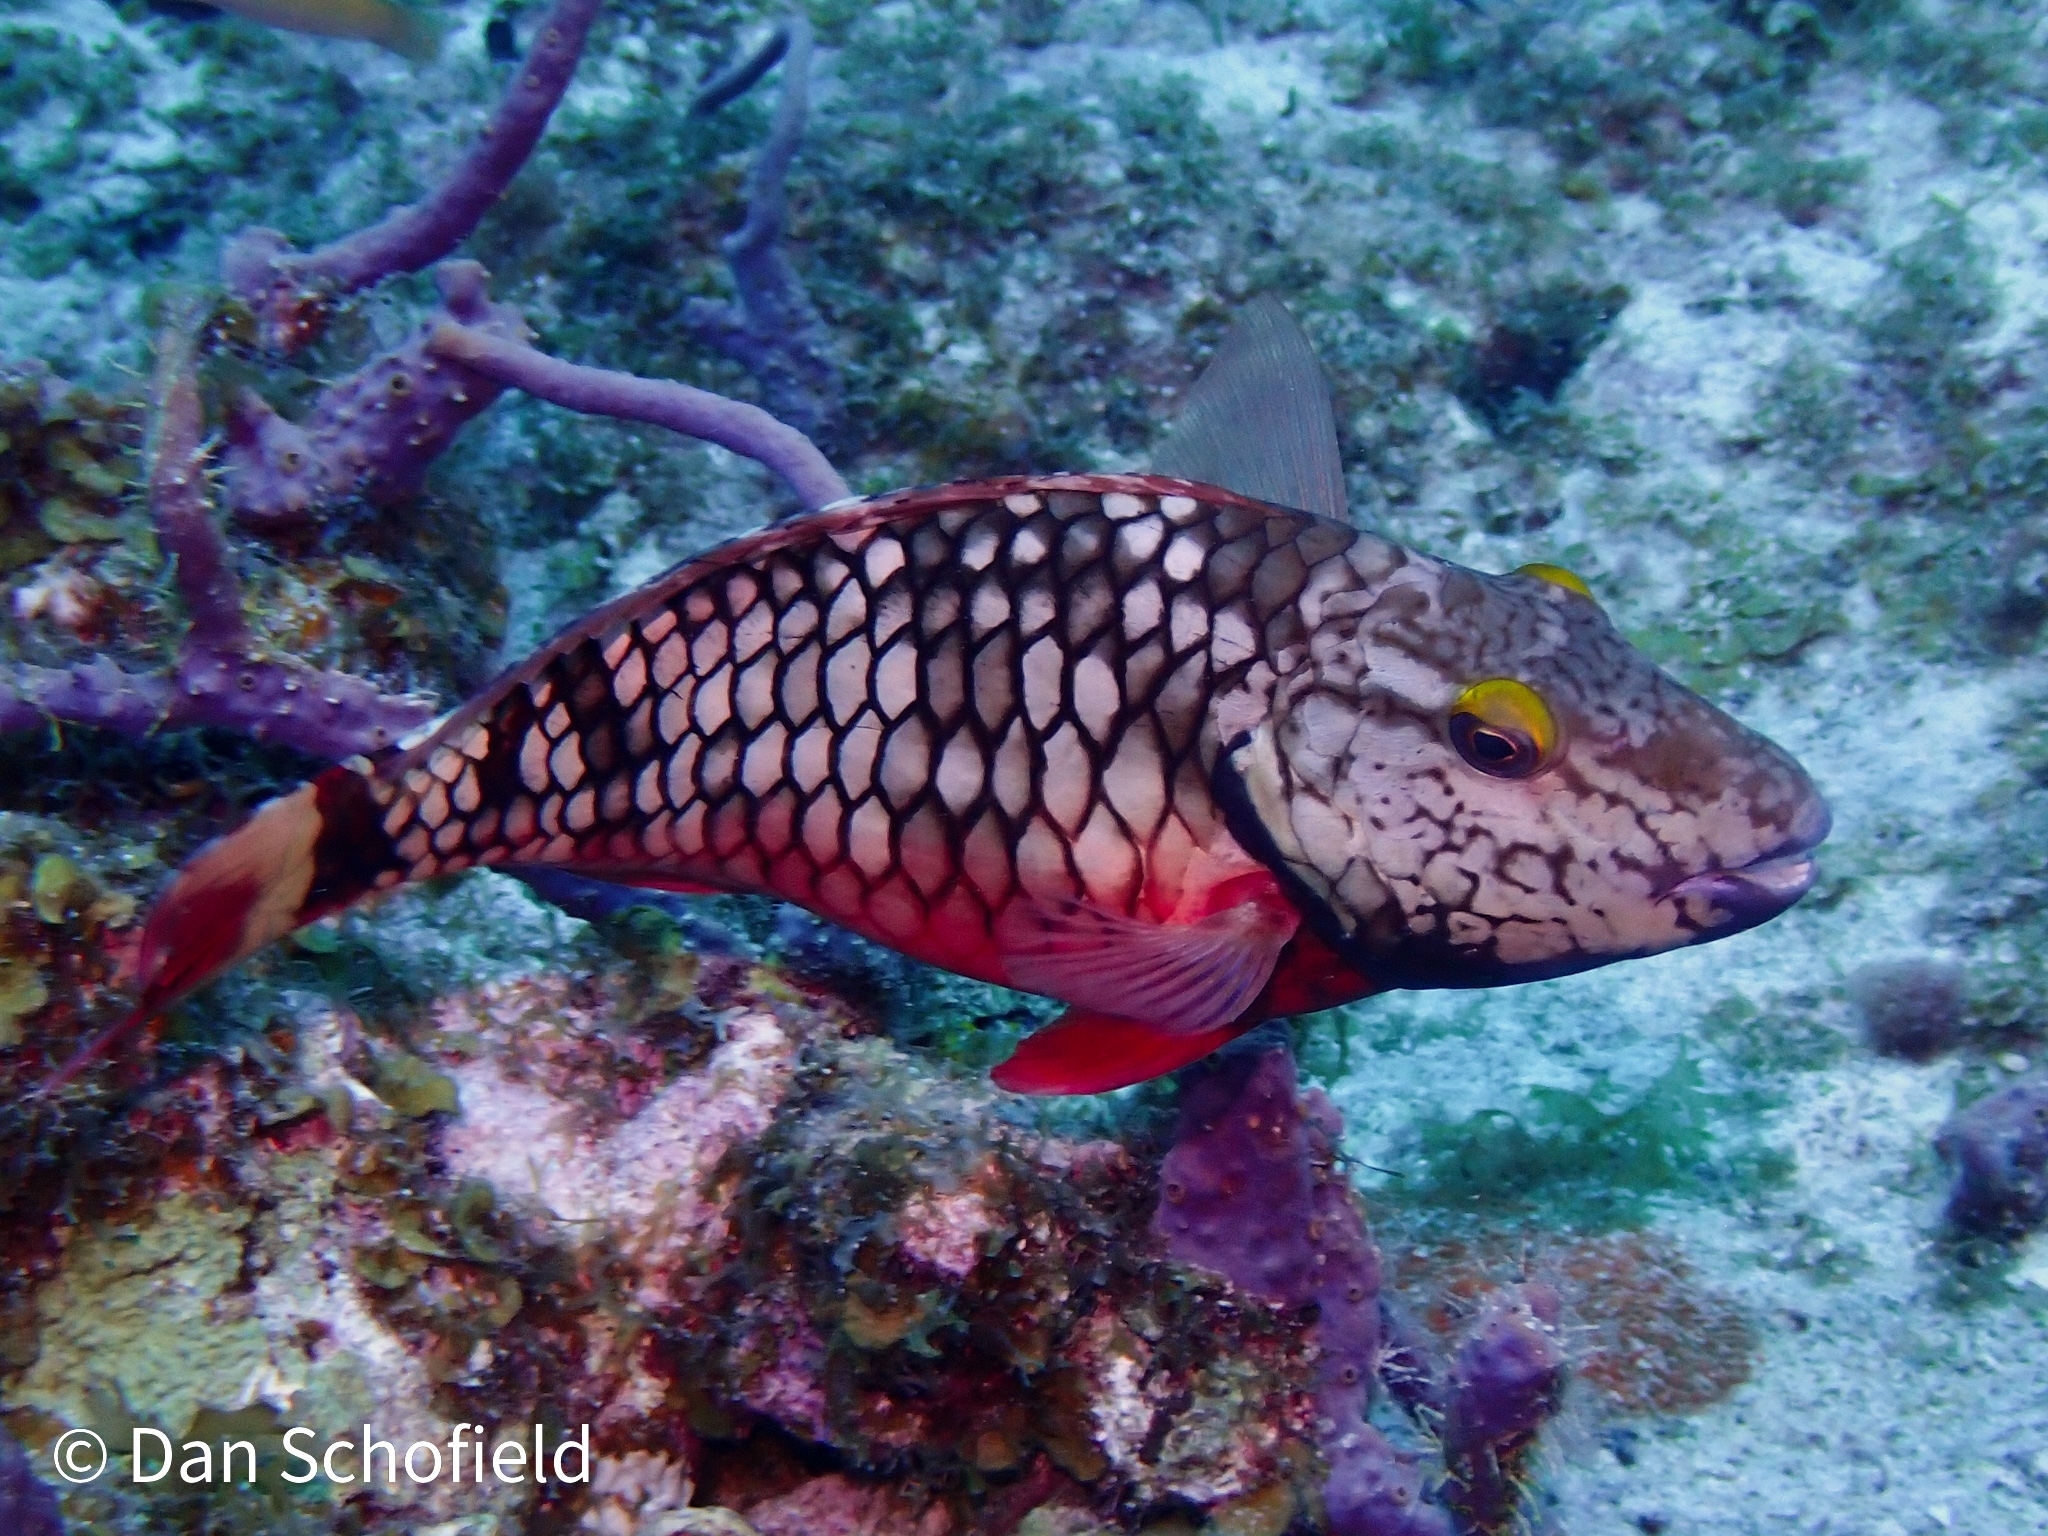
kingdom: Animalia
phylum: Chordata
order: Perciformes
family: Scaridae
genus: Sparisoma
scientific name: Sparisoma viride
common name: Stoplight parrotfish
